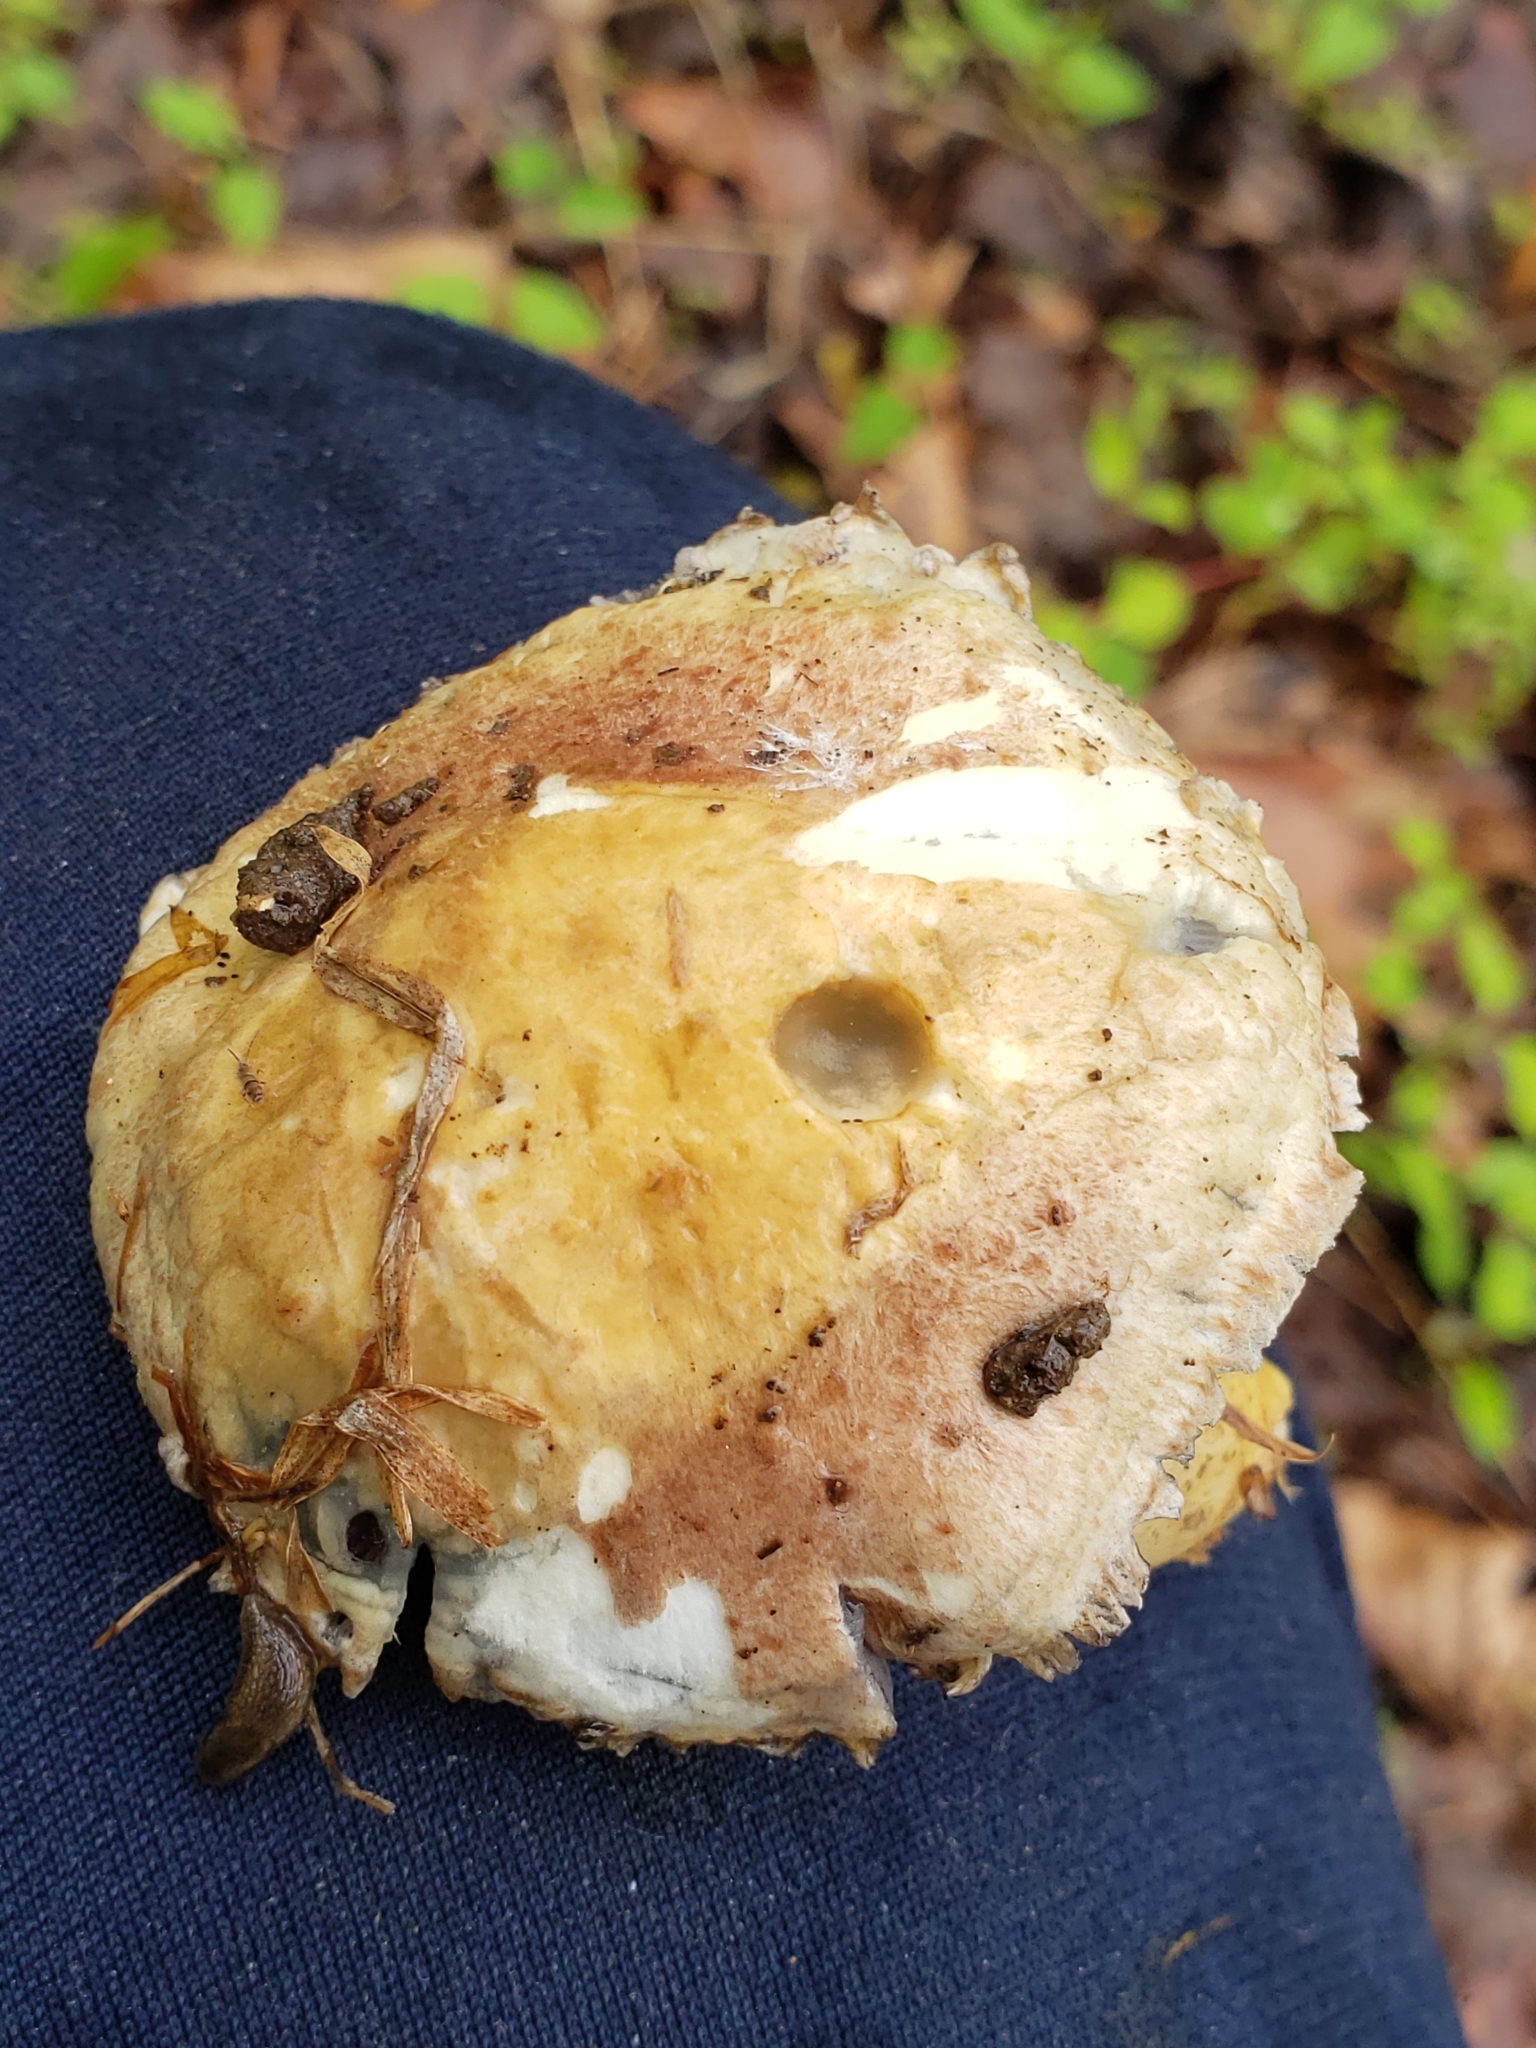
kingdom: Fungi
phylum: Basidiomycota
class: Agaricomycetes
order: Agaricales
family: Strophariaceae
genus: Stropharia
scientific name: Stropharia rugosoannulata
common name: Wine roundhead
